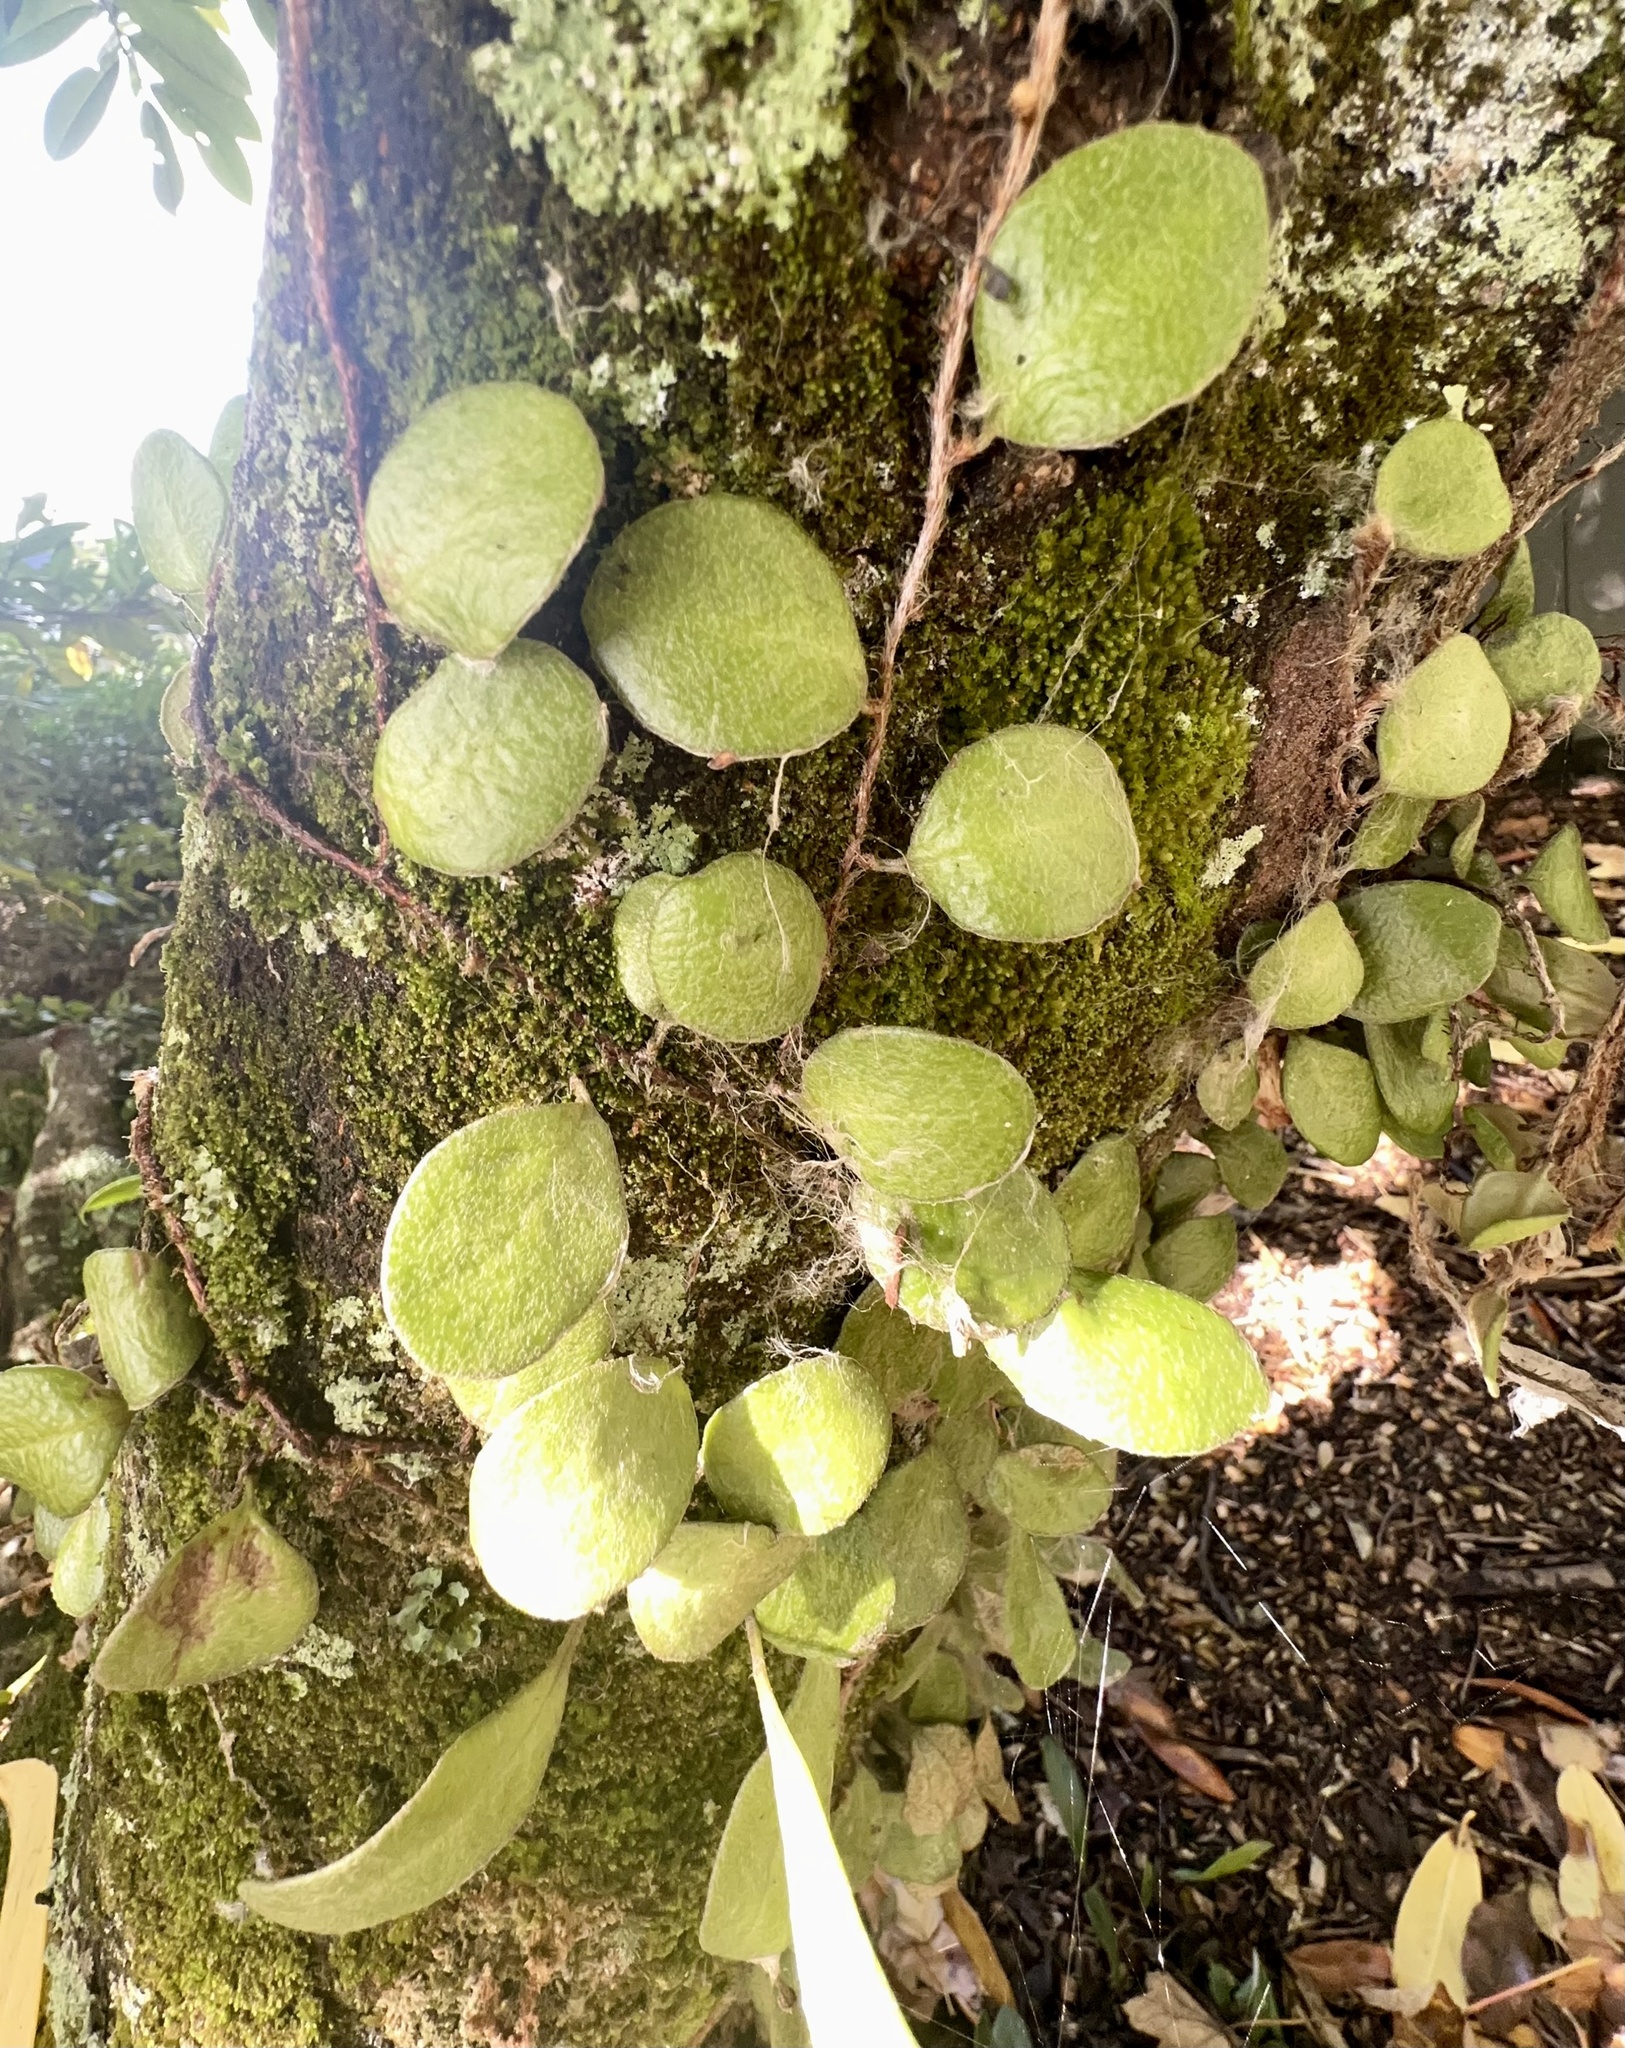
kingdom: Plantae
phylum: Tracheophyta
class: Polypodiopsida
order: Polypodiales
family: Polypodiaceae
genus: Pyrrosia
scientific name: Pyrrosia eleagnifolia
